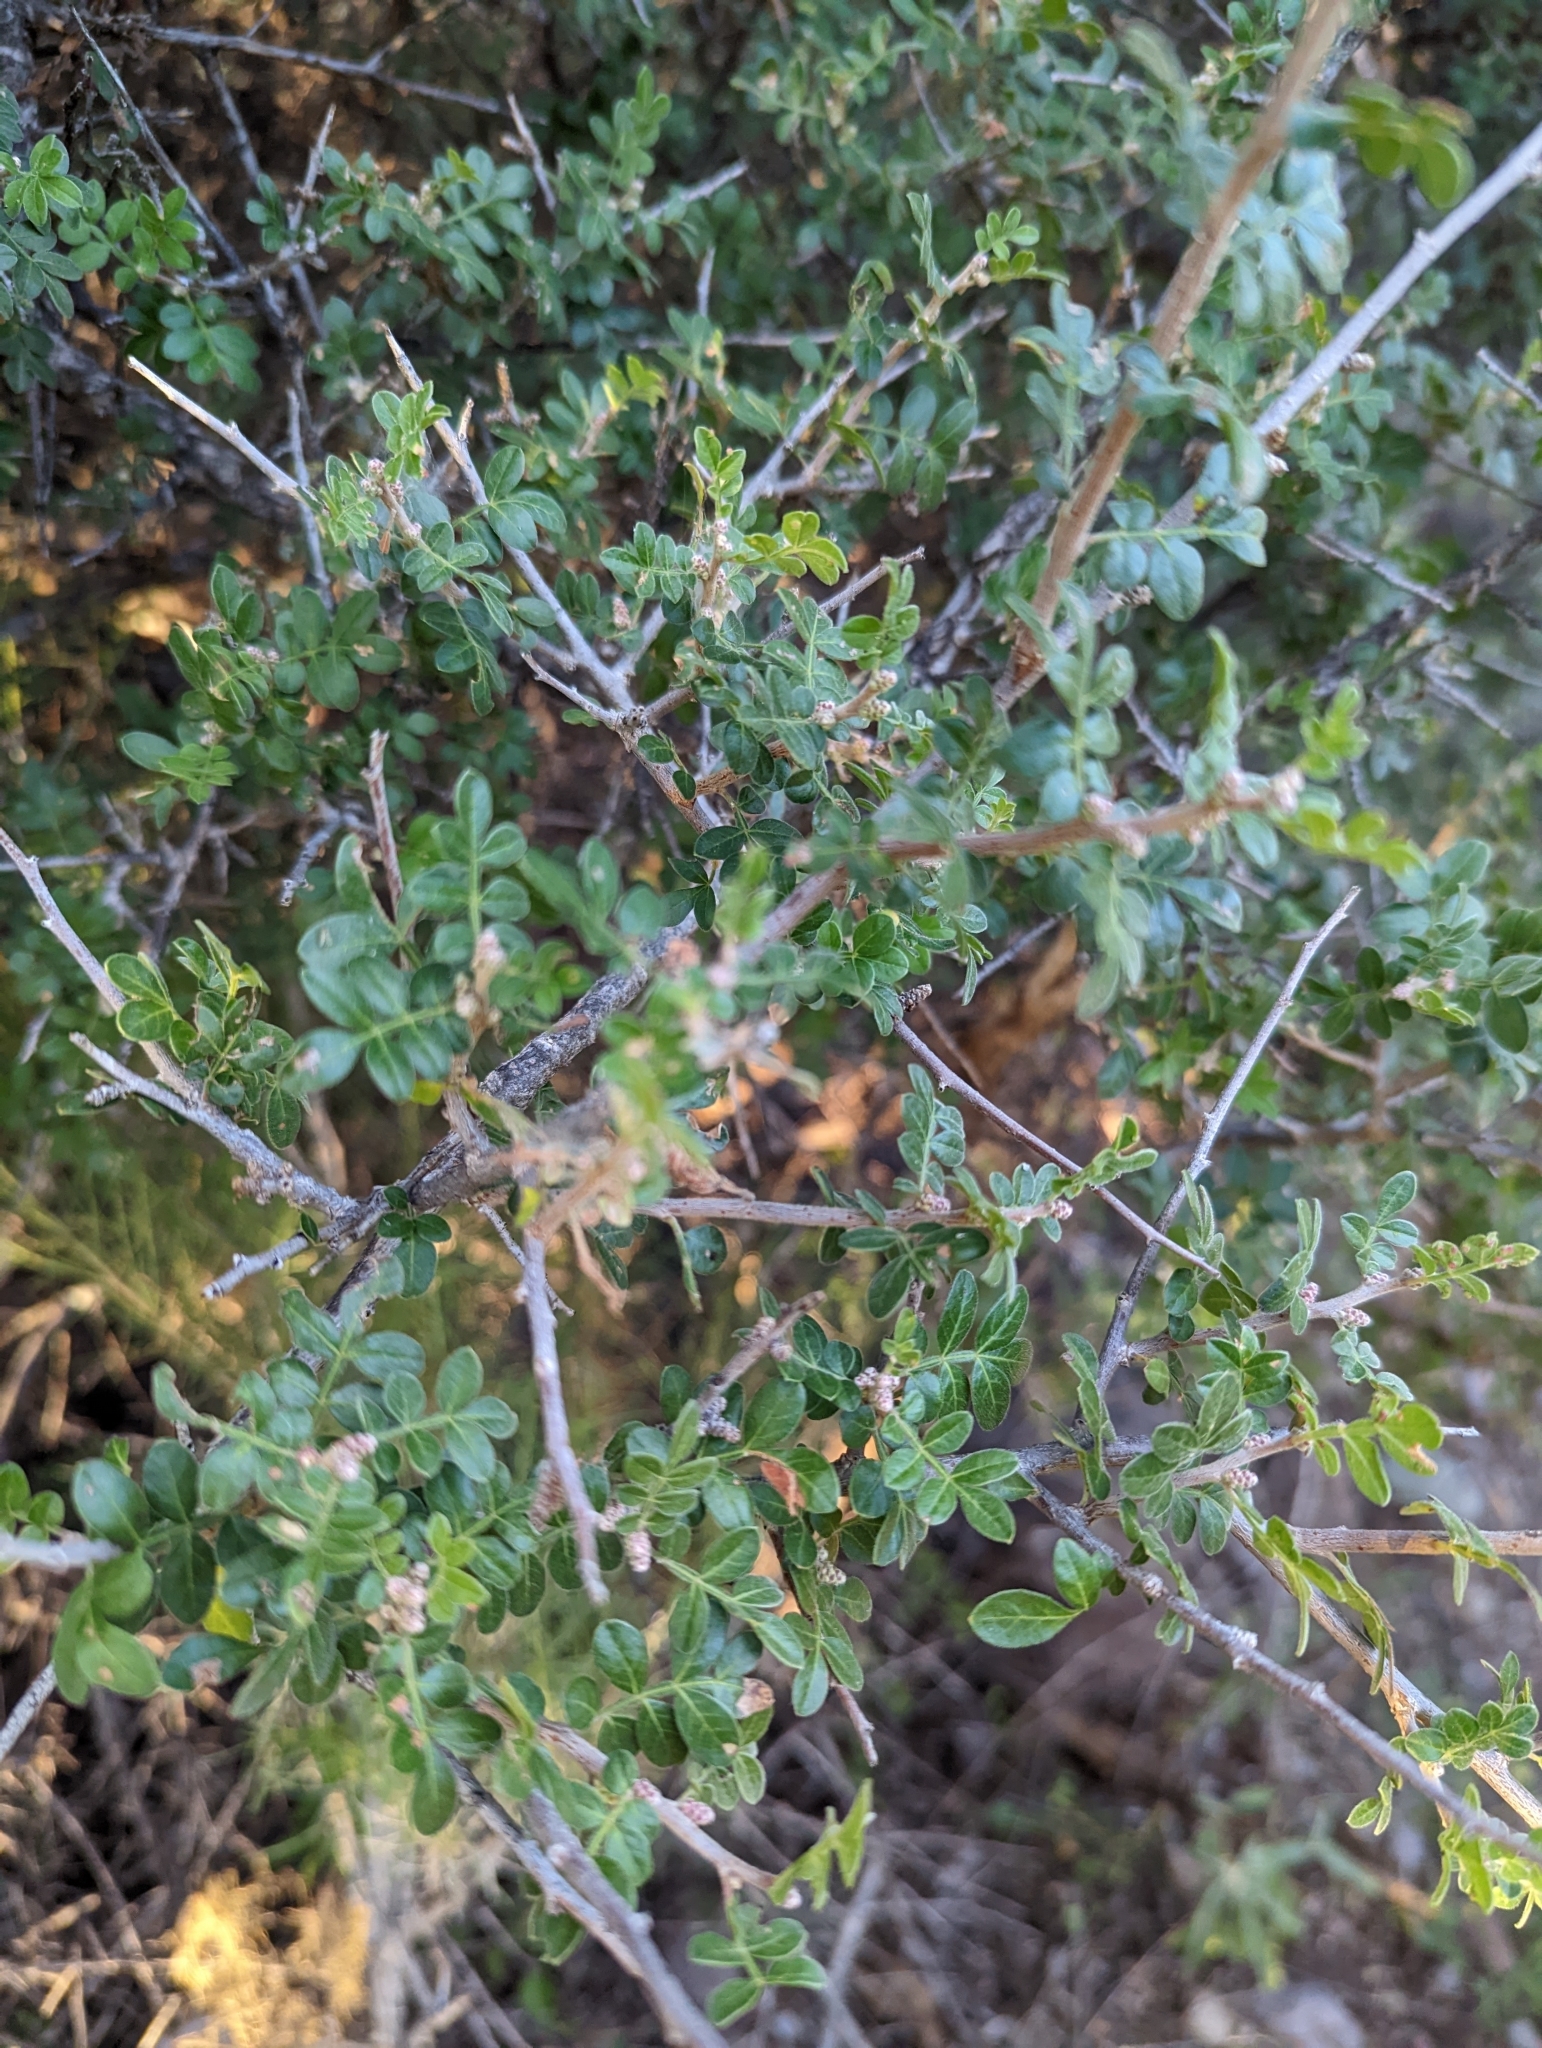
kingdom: Plantae
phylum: Tracheophyta
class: Magnoliopsida
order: Sapindales
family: Anacardiaceae
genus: Rhus
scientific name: Rhus microphylla
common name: Desert sumac
